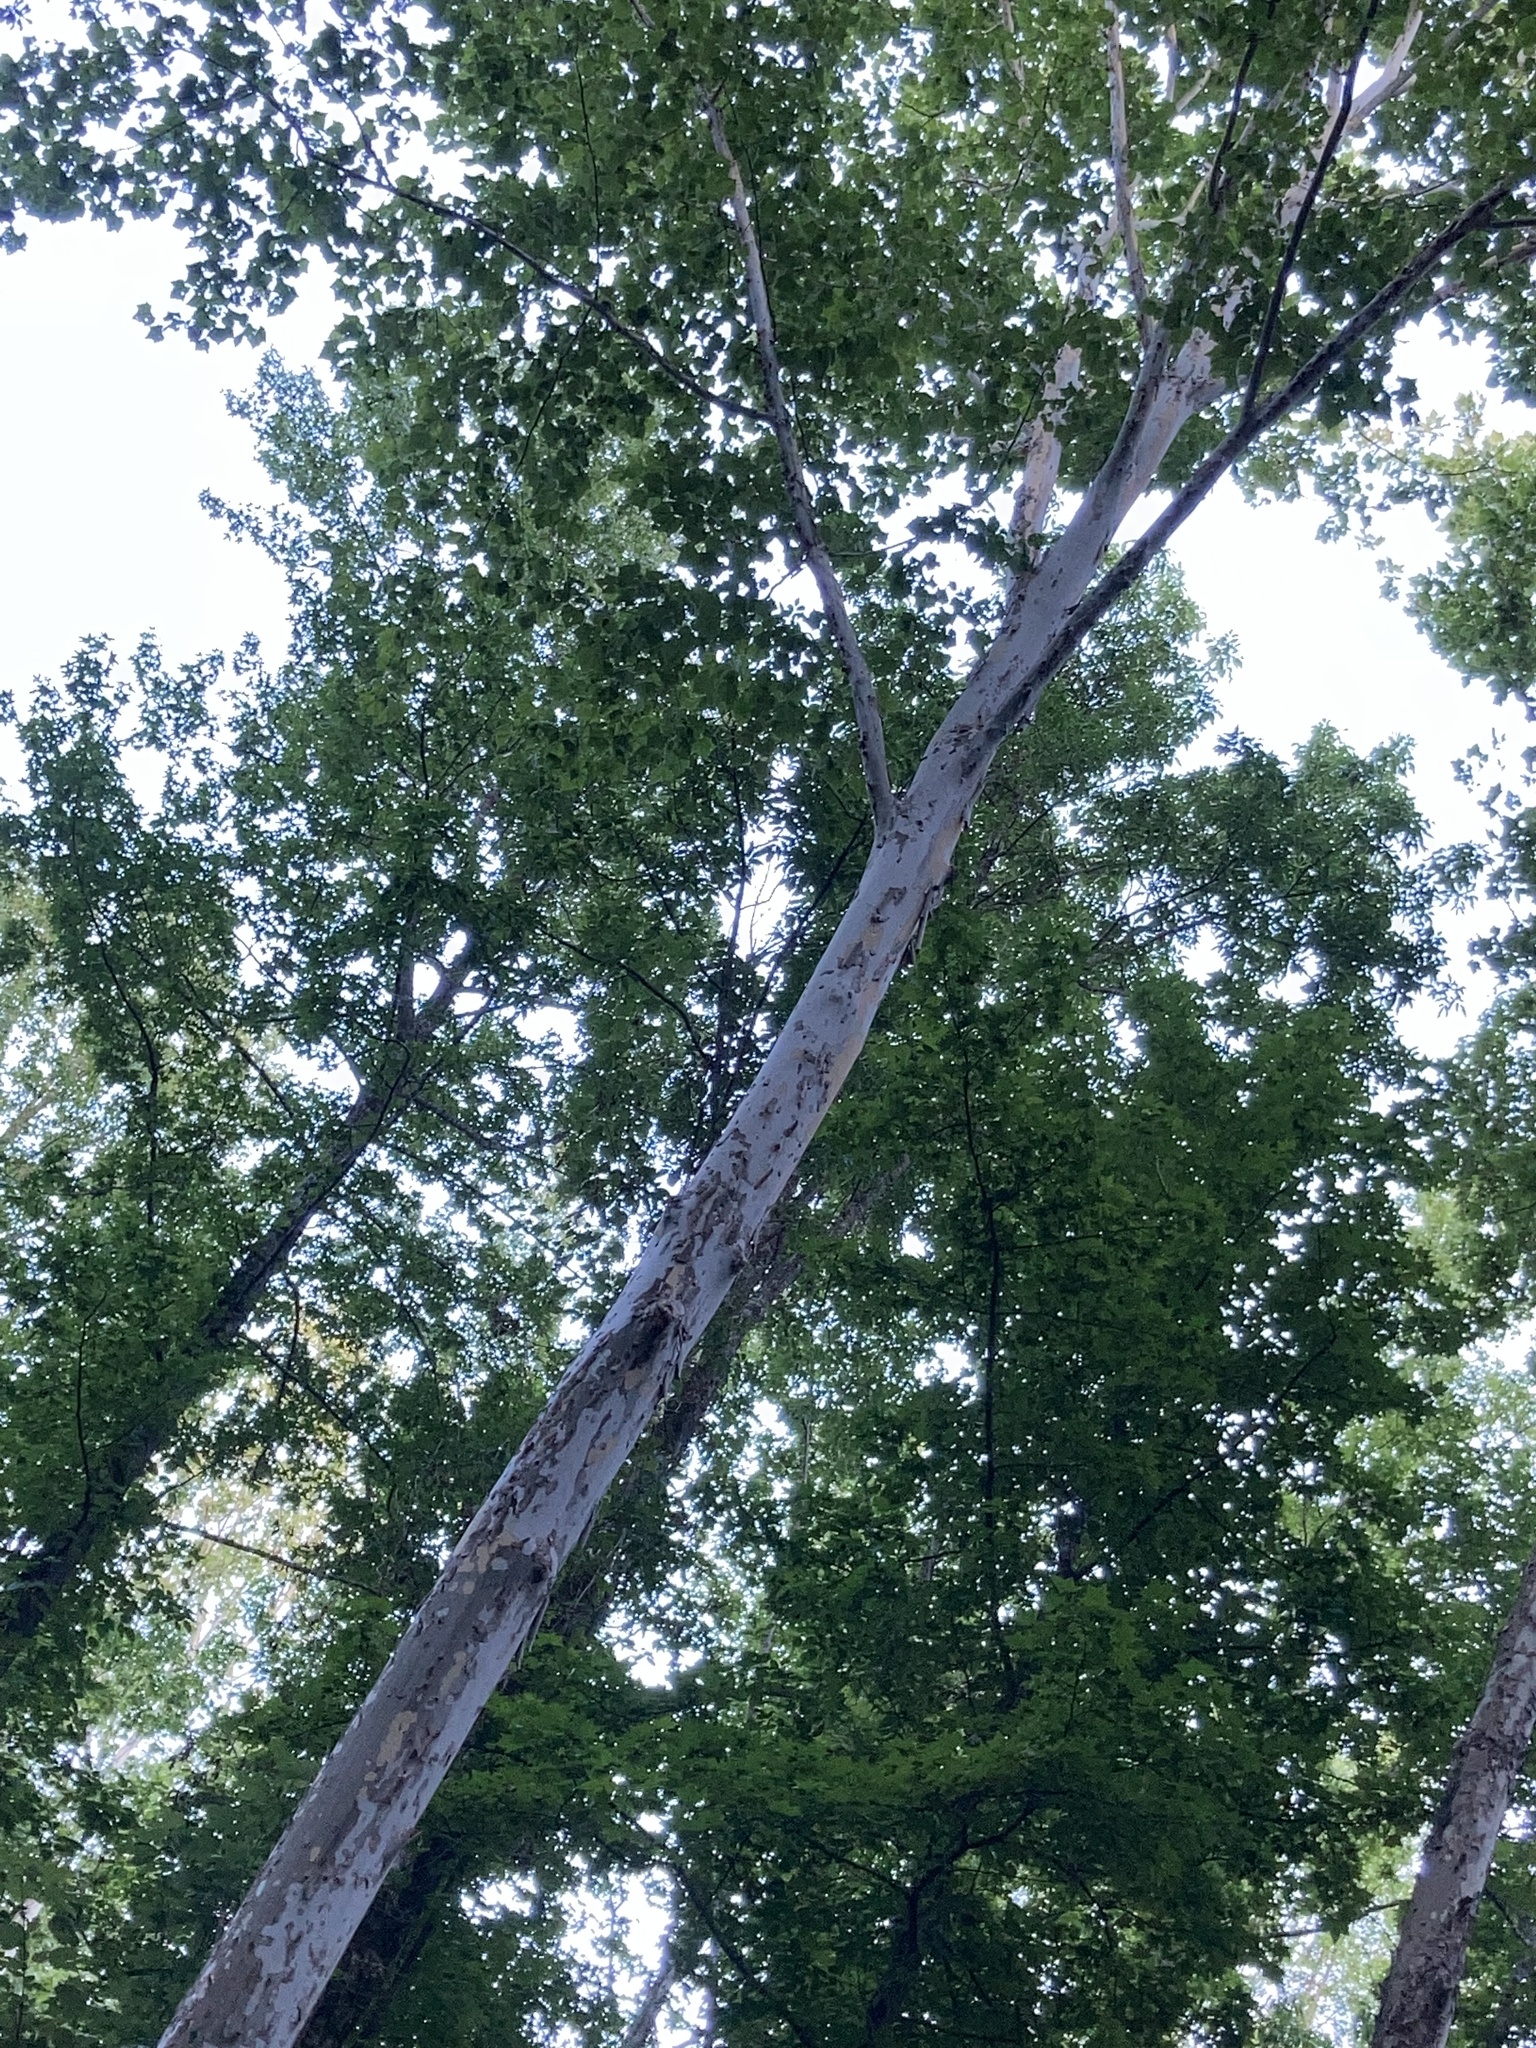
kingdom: Plantae
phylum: Tracheophyta
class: Magnoliopsida
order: Proteales
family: Platanaceae
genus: Platanus
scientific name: Platanus occidentalis
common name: American sycamore
